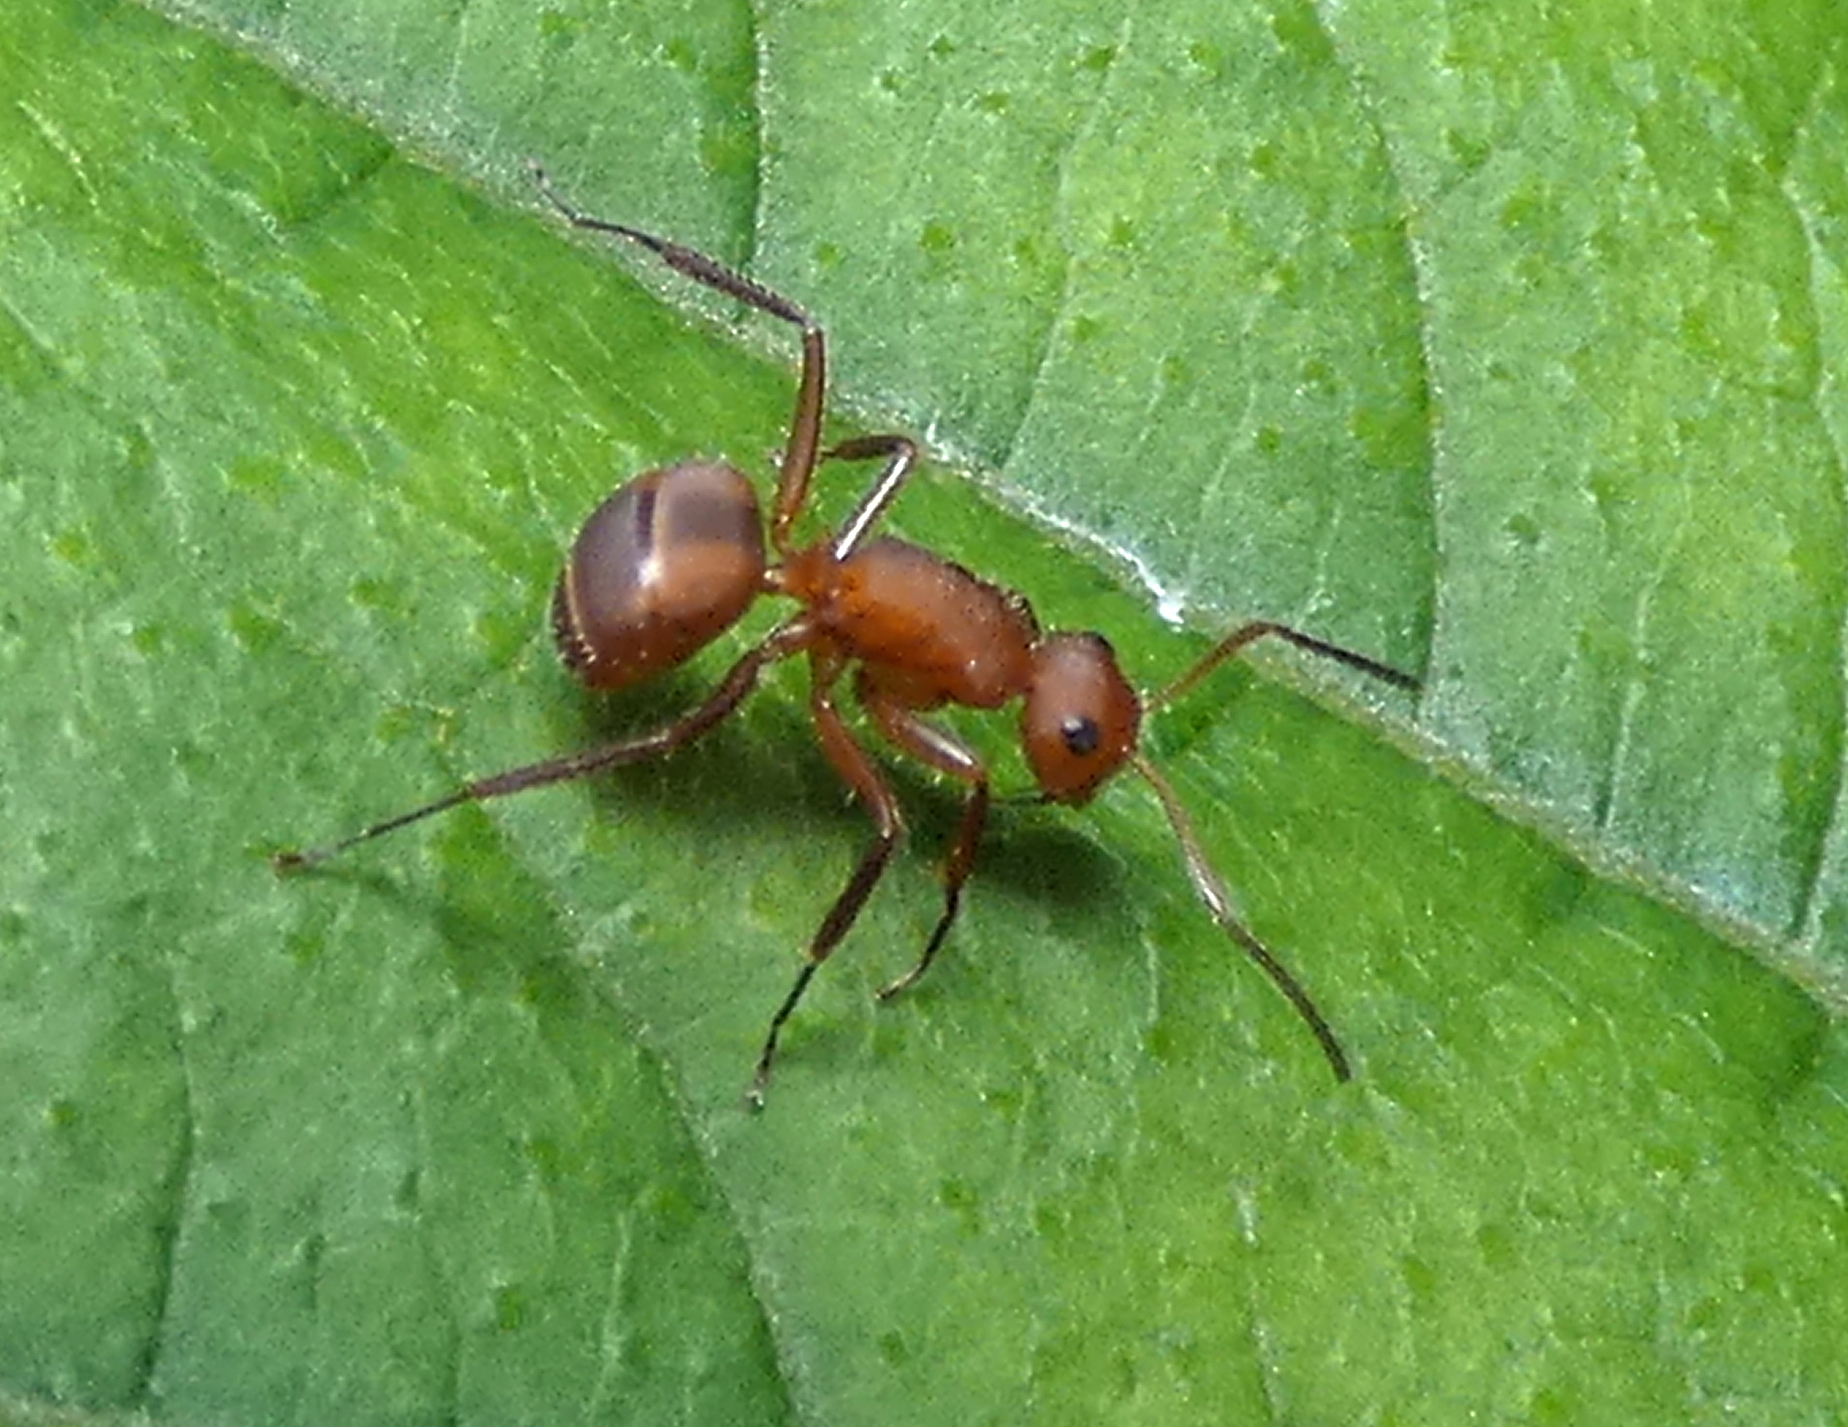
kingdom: Animalia
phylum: Arthropoda
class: Insecta
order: Hymenoptera
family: Formicidae
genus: Camponotus
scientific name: Camponotus rectangularis
